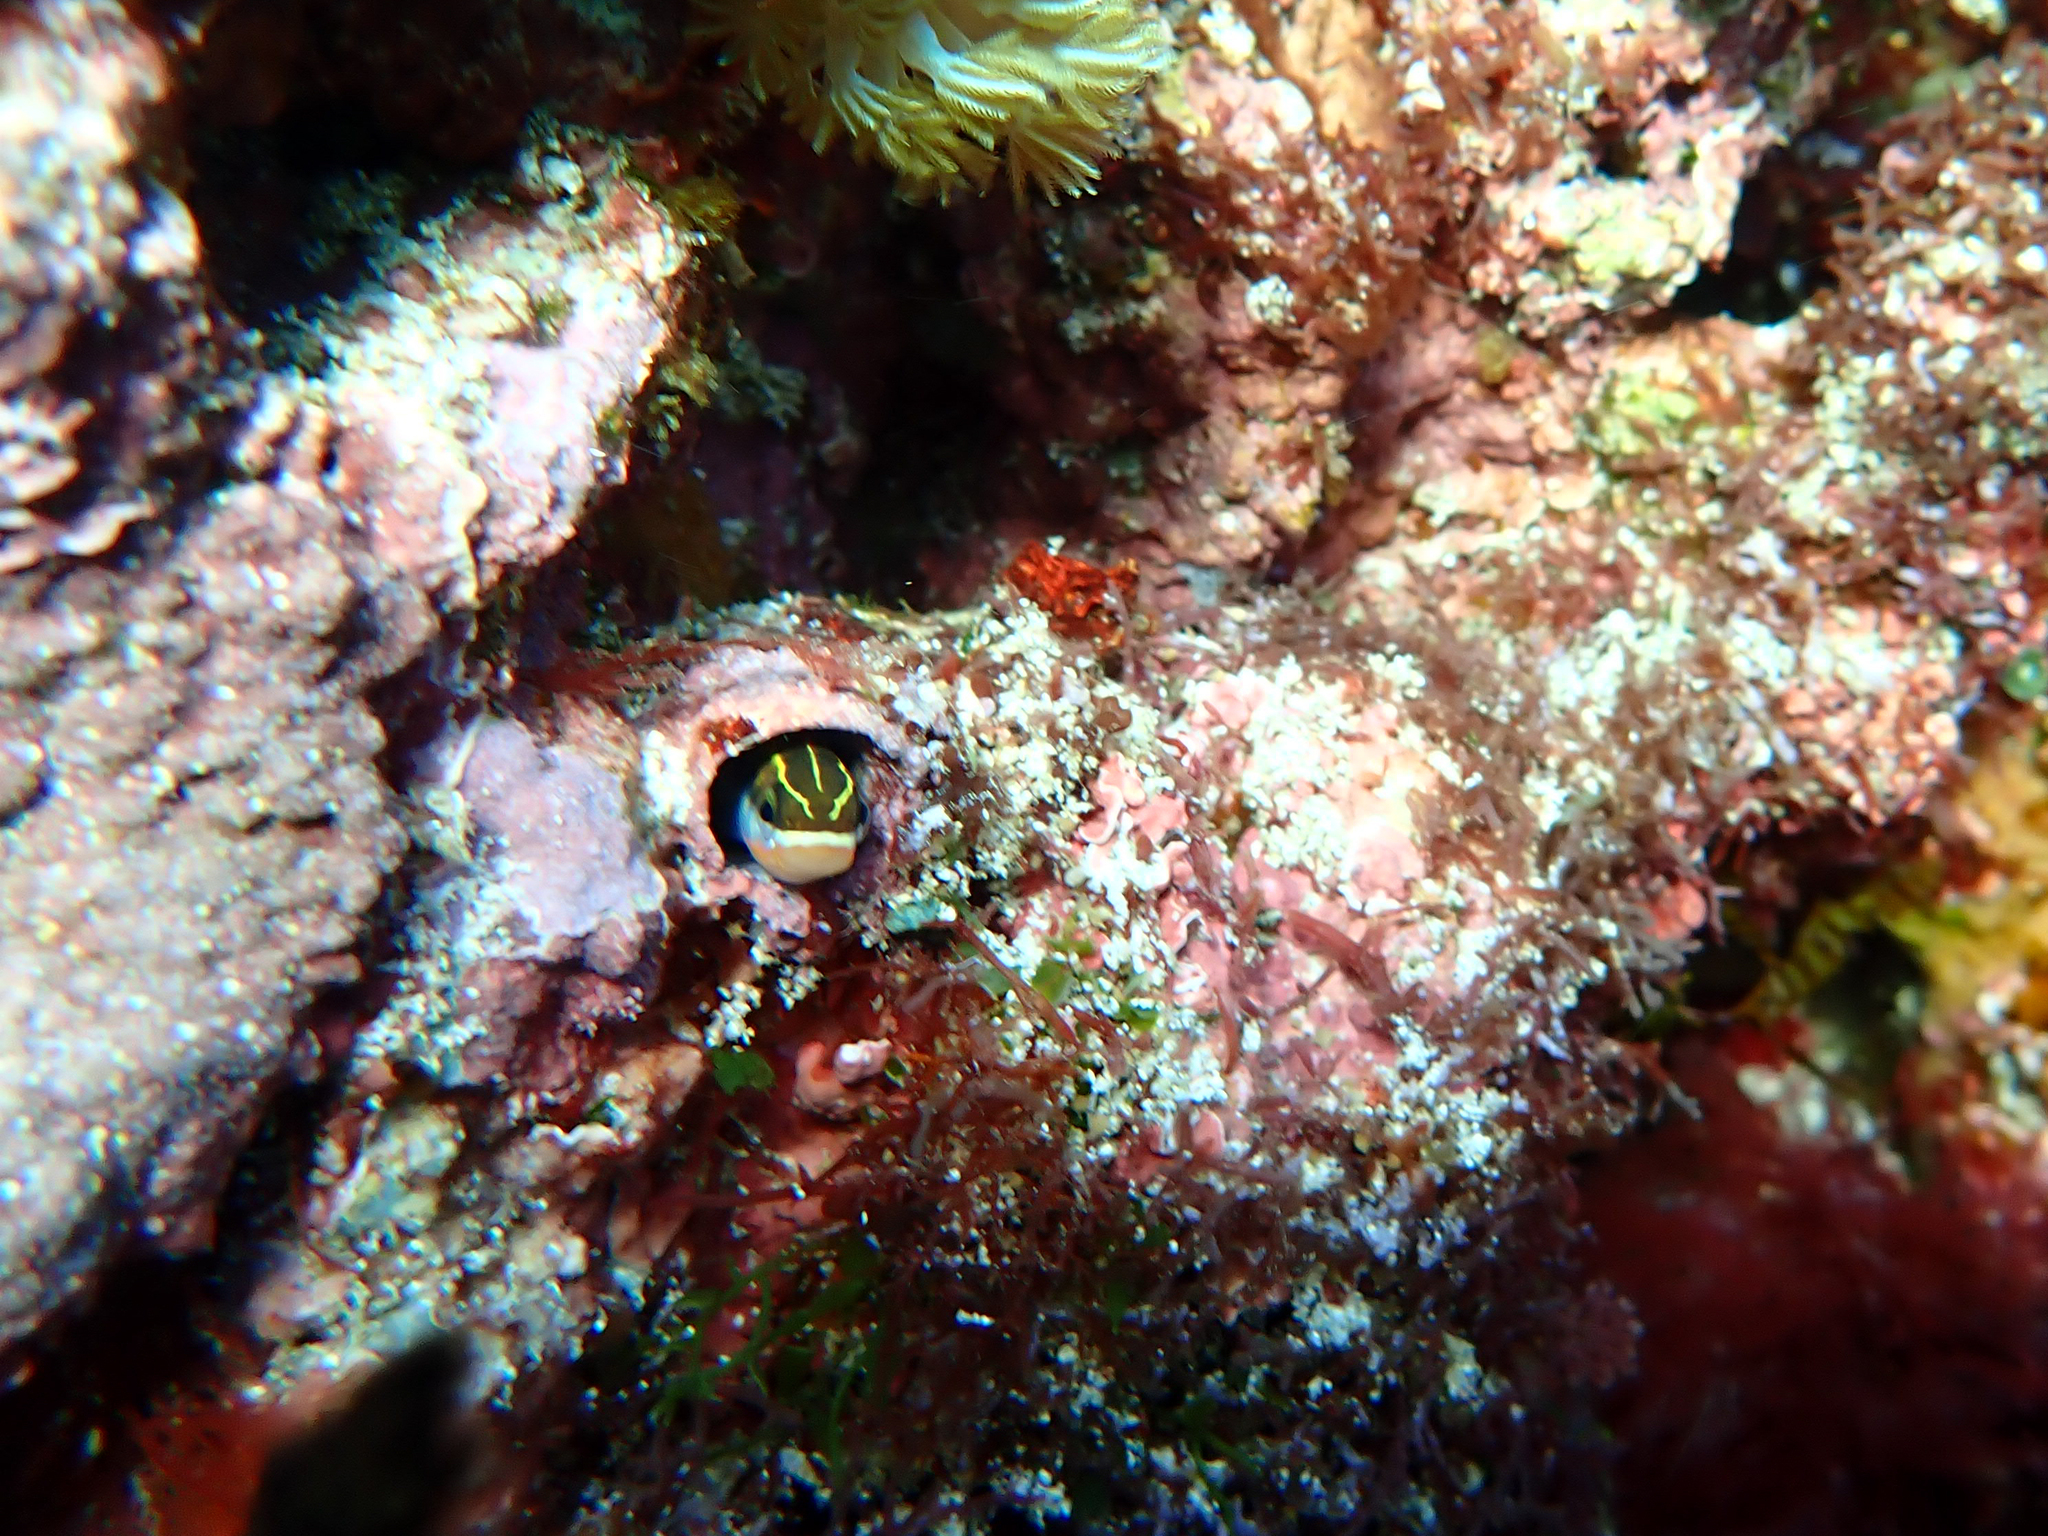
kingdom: Animalia
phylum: Chordata
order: Perciformes
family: Blenniidae
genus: Plagiotremus
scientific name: Plagiotremus tapeinosoma
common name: Hit and run blenny
